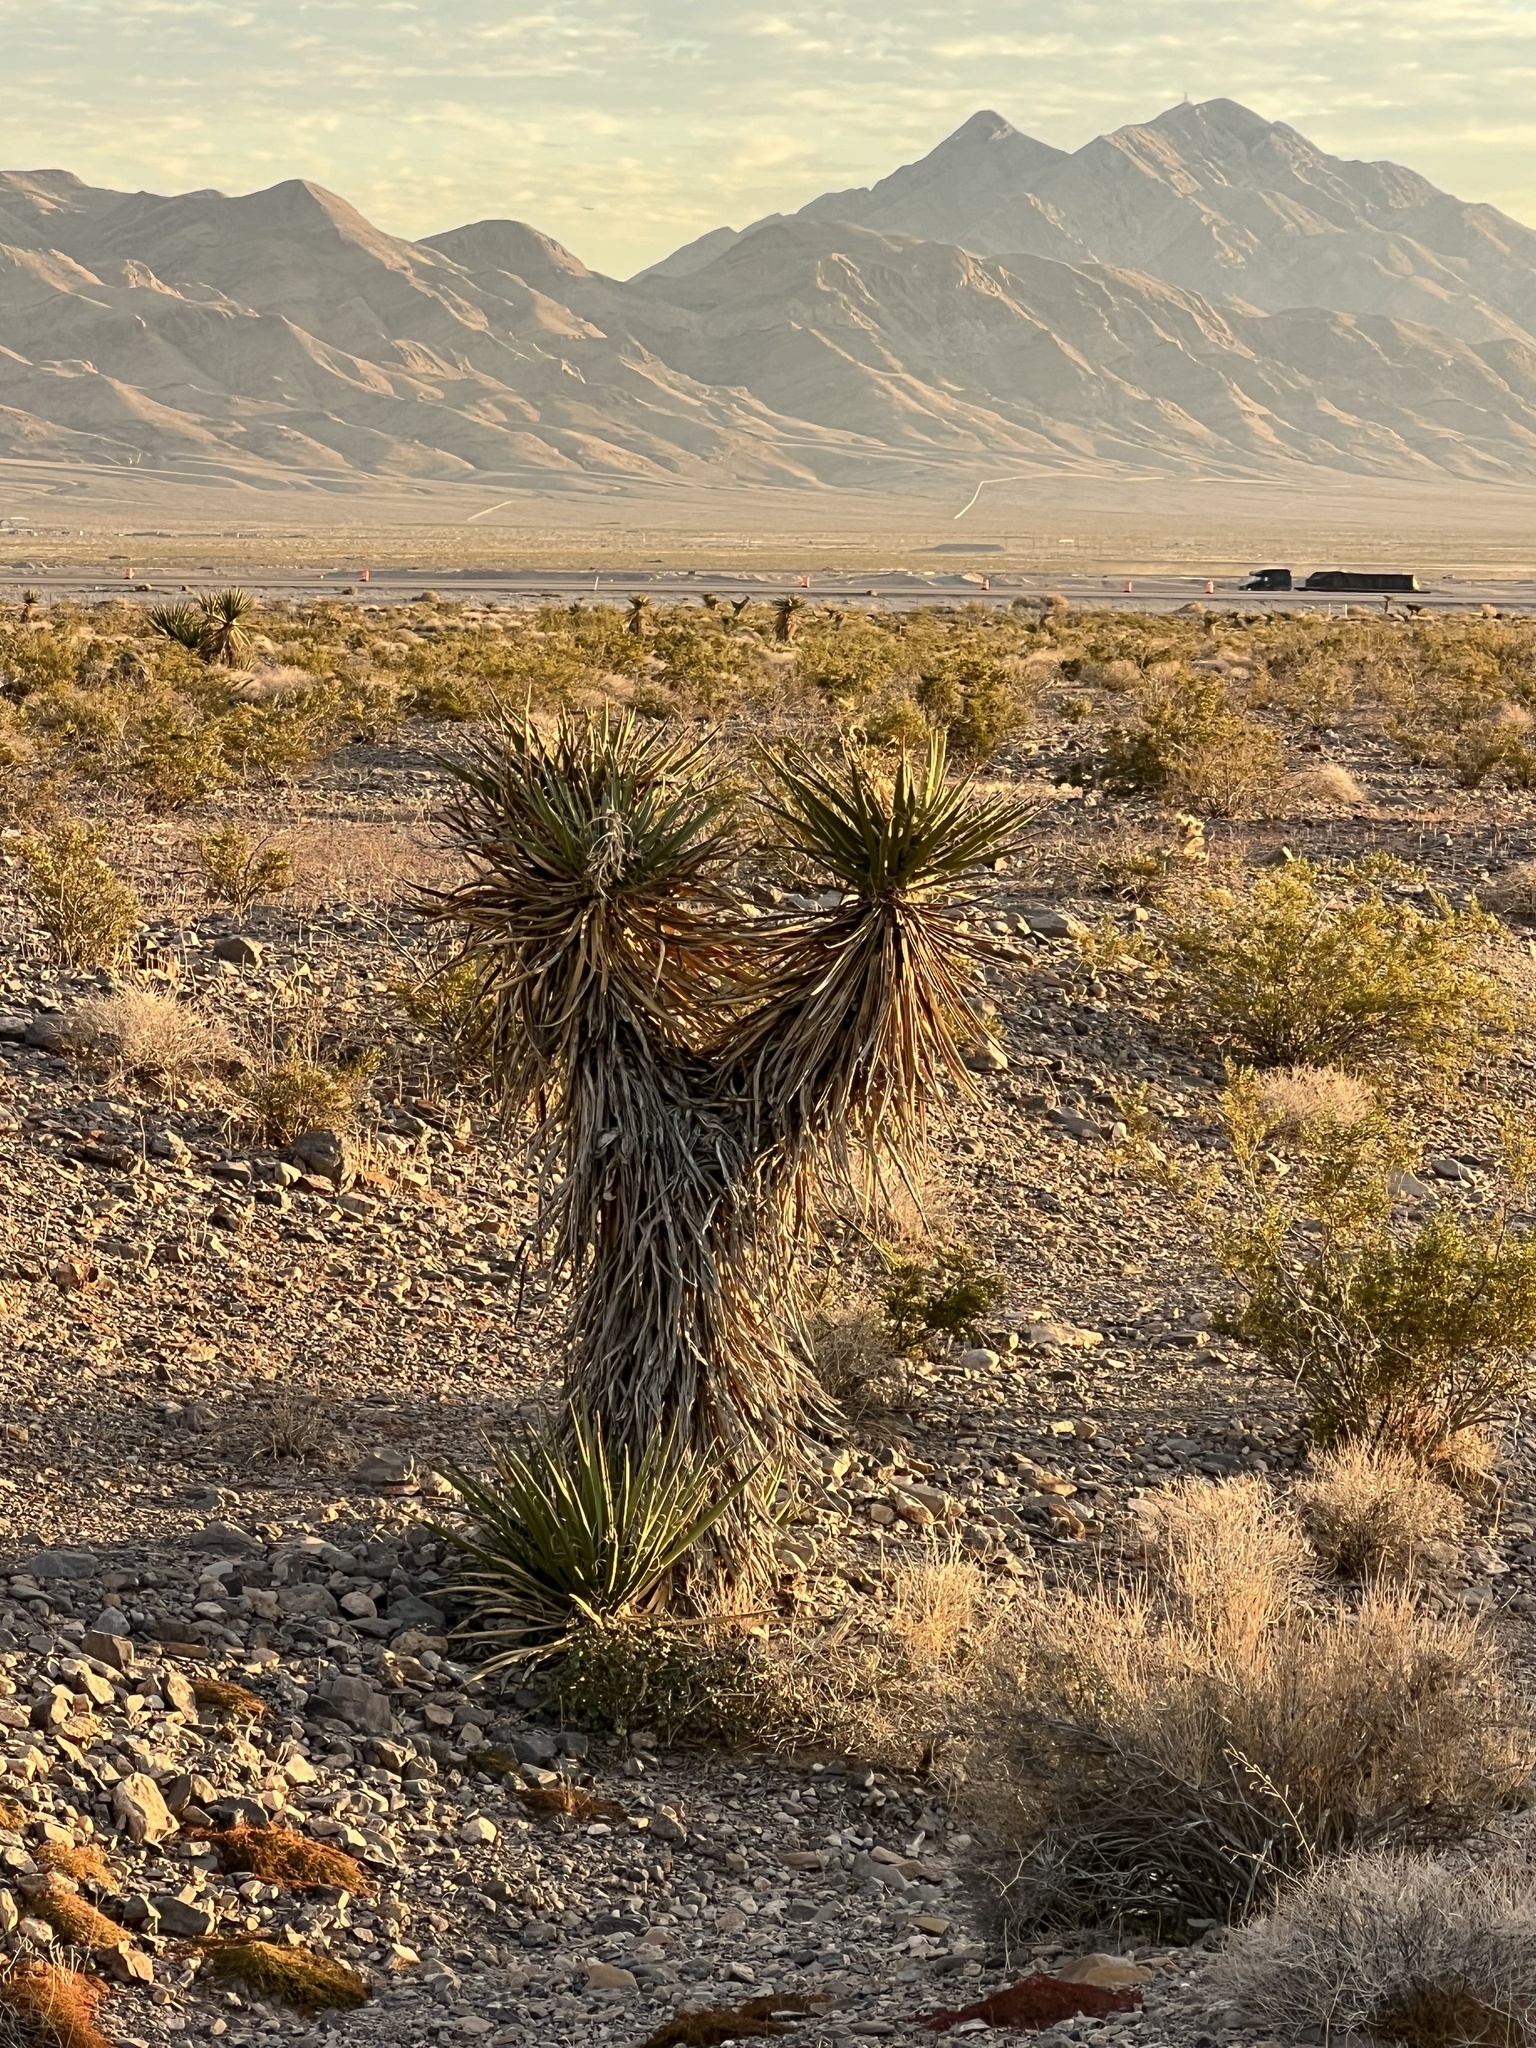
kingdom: Plantae
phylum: Tracheophyta
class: Liliopsida
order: Asparagales
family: Asparagaceae
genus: Yucca
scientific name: Yucca schidigera
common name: Mojave yucca
